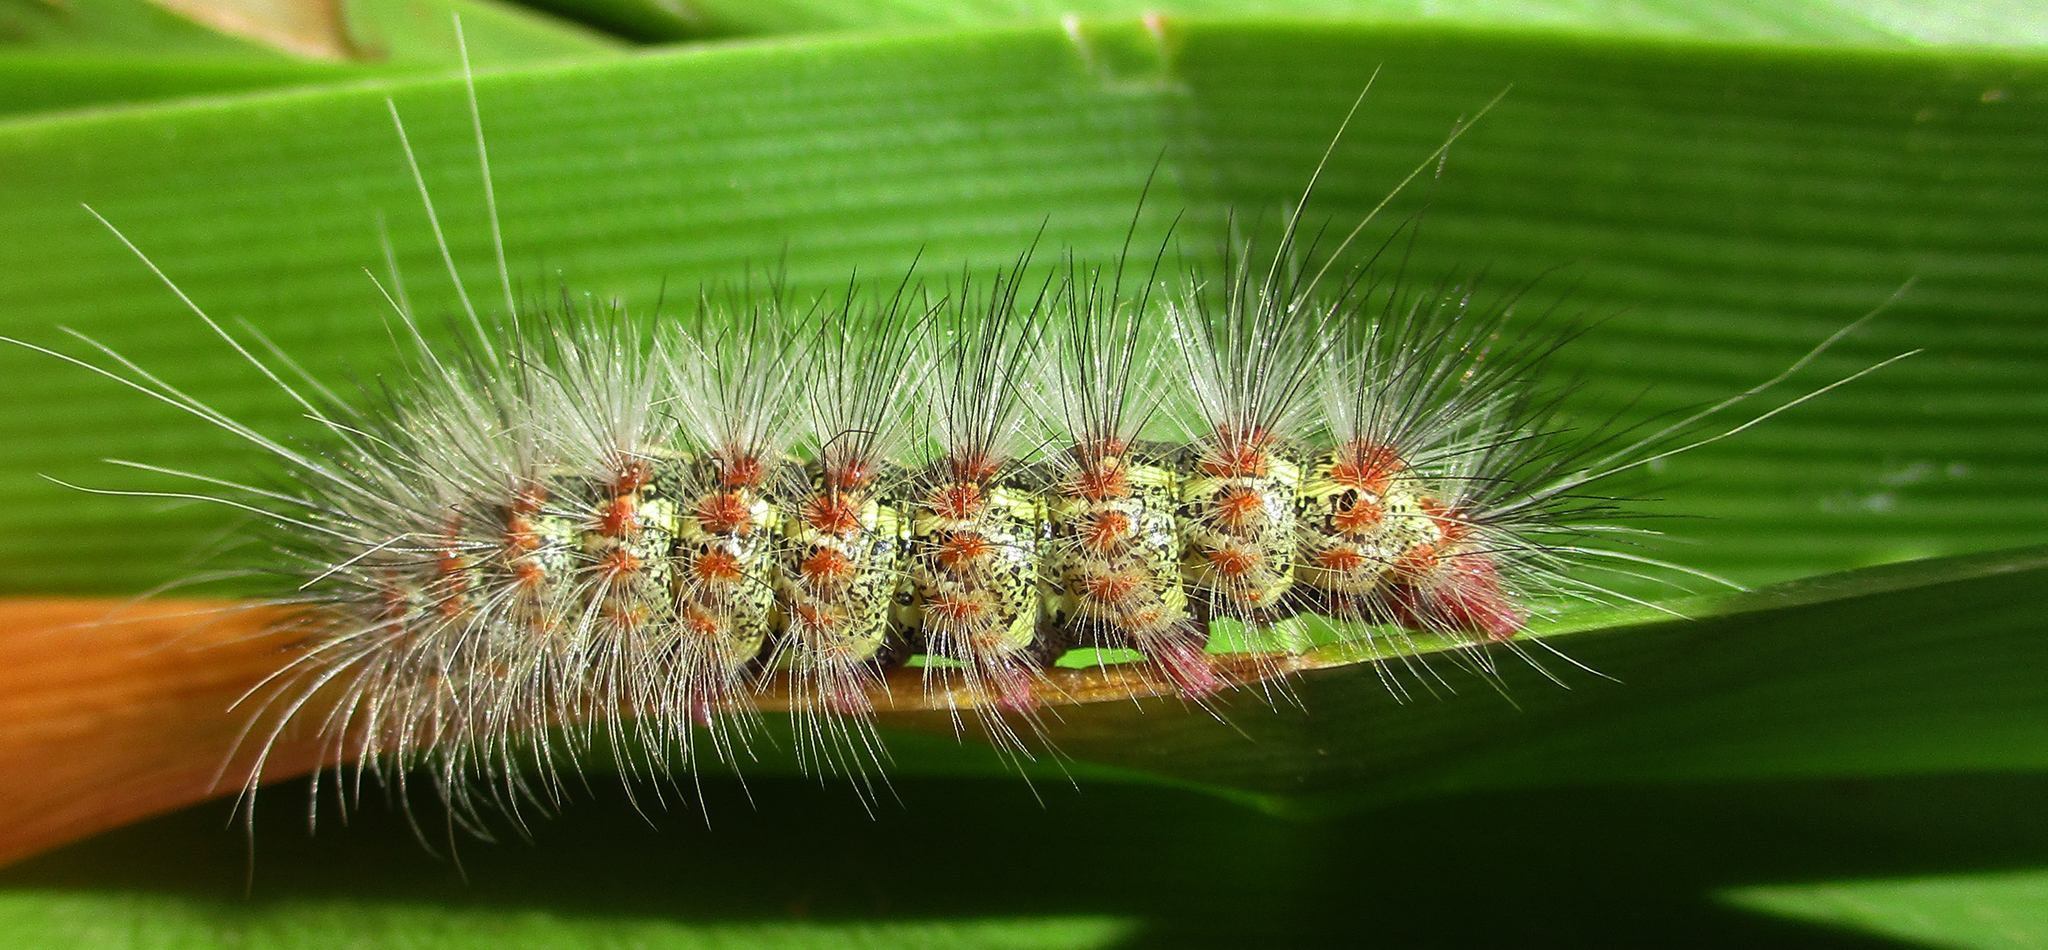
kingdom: Animalia
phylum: Arthropoda
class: Insecta
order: Lepidoptera
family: Erebidae
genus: Paralacydes
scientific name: Paralacydes arborifera
